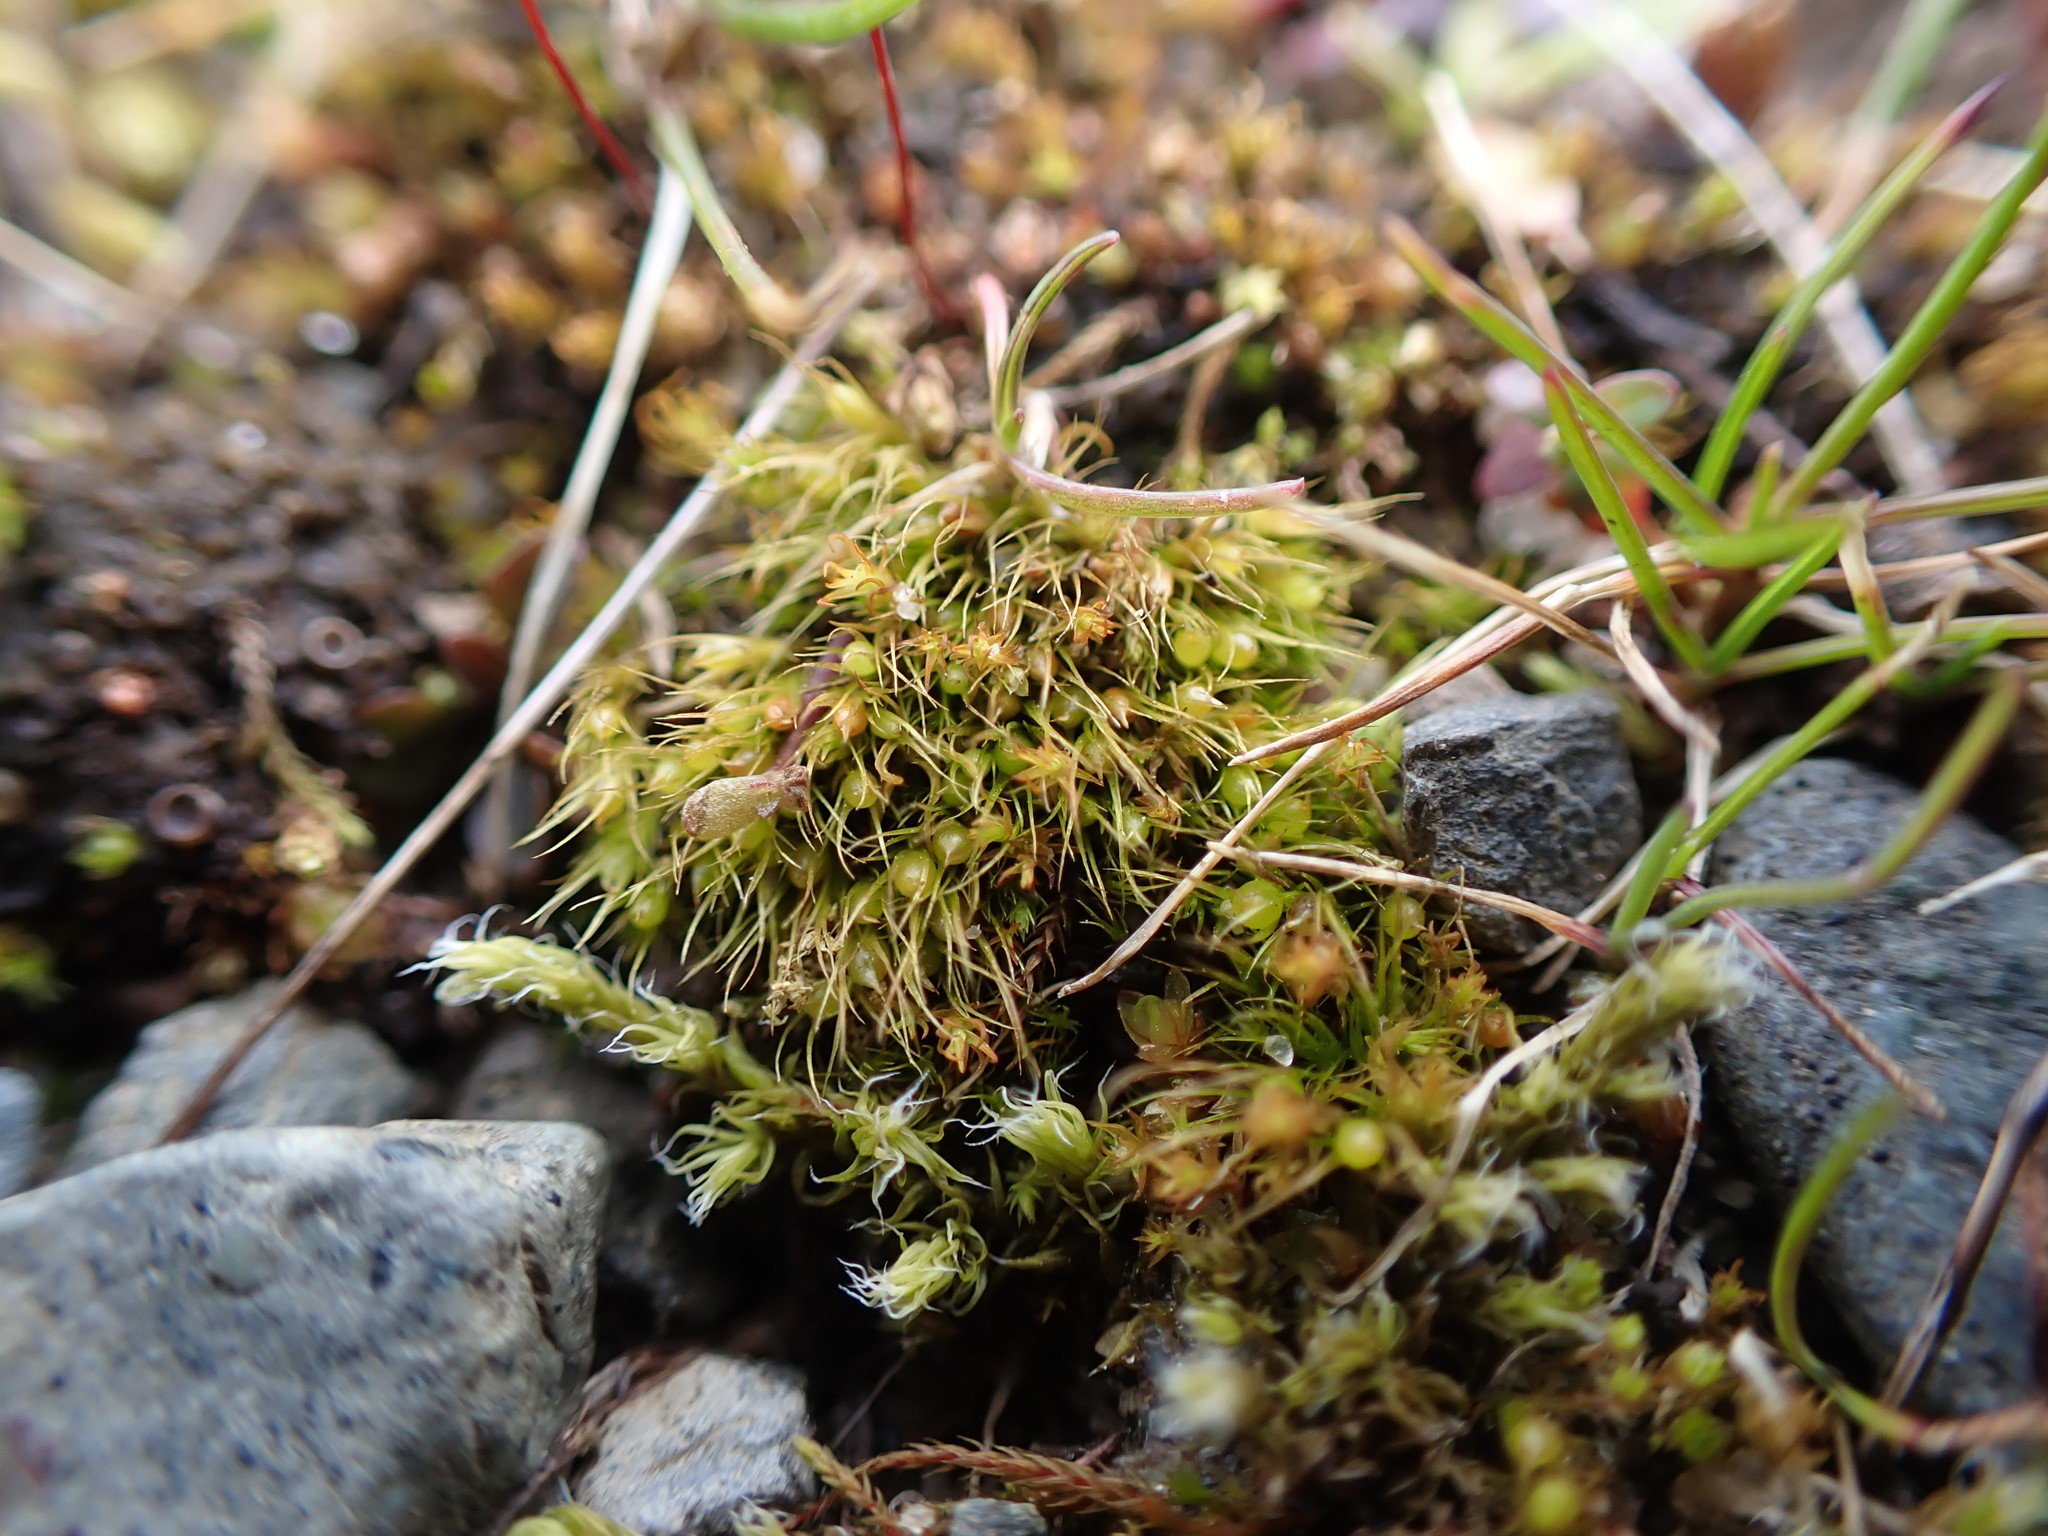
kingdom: Plantae
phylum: Bryophyta
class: Bryopsida
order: Dicranales
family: Ditrichaceae
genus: Pleuridium
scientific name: Pleuridium acuminatum
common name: Taper-leaved earth-moss
